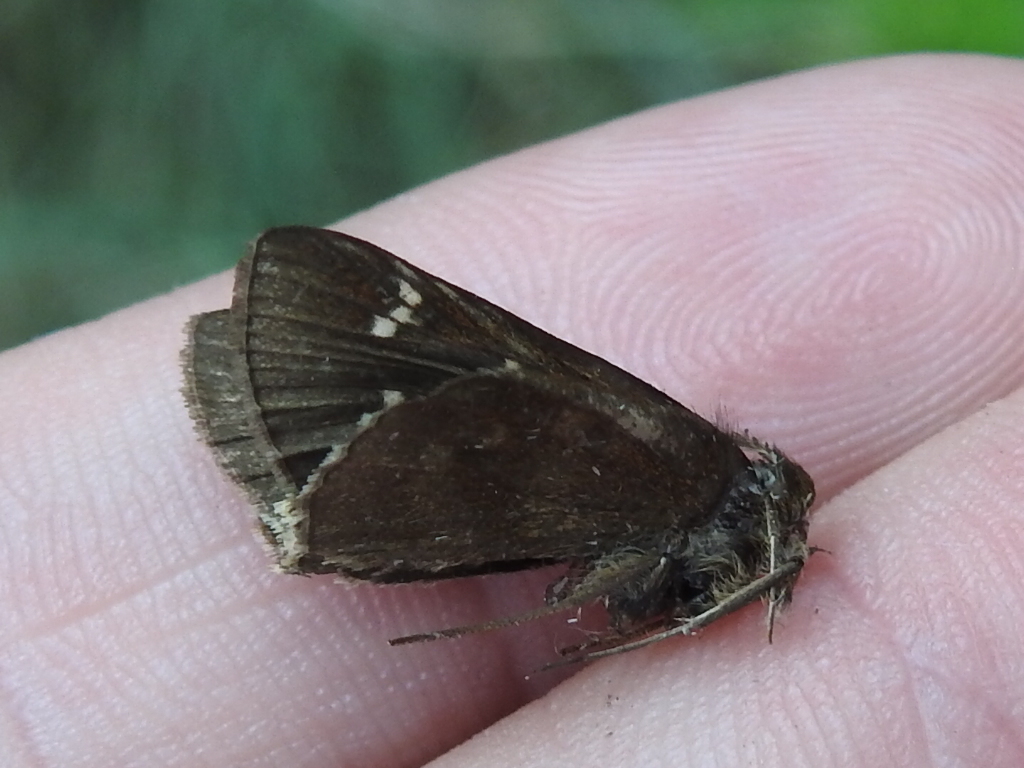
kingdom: Animalia
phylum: Arthropoda
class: Insecta
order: Lepidoptera
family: Hesperiidae
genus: Lerema
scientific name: Lerema accius
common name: Clouded skipper
